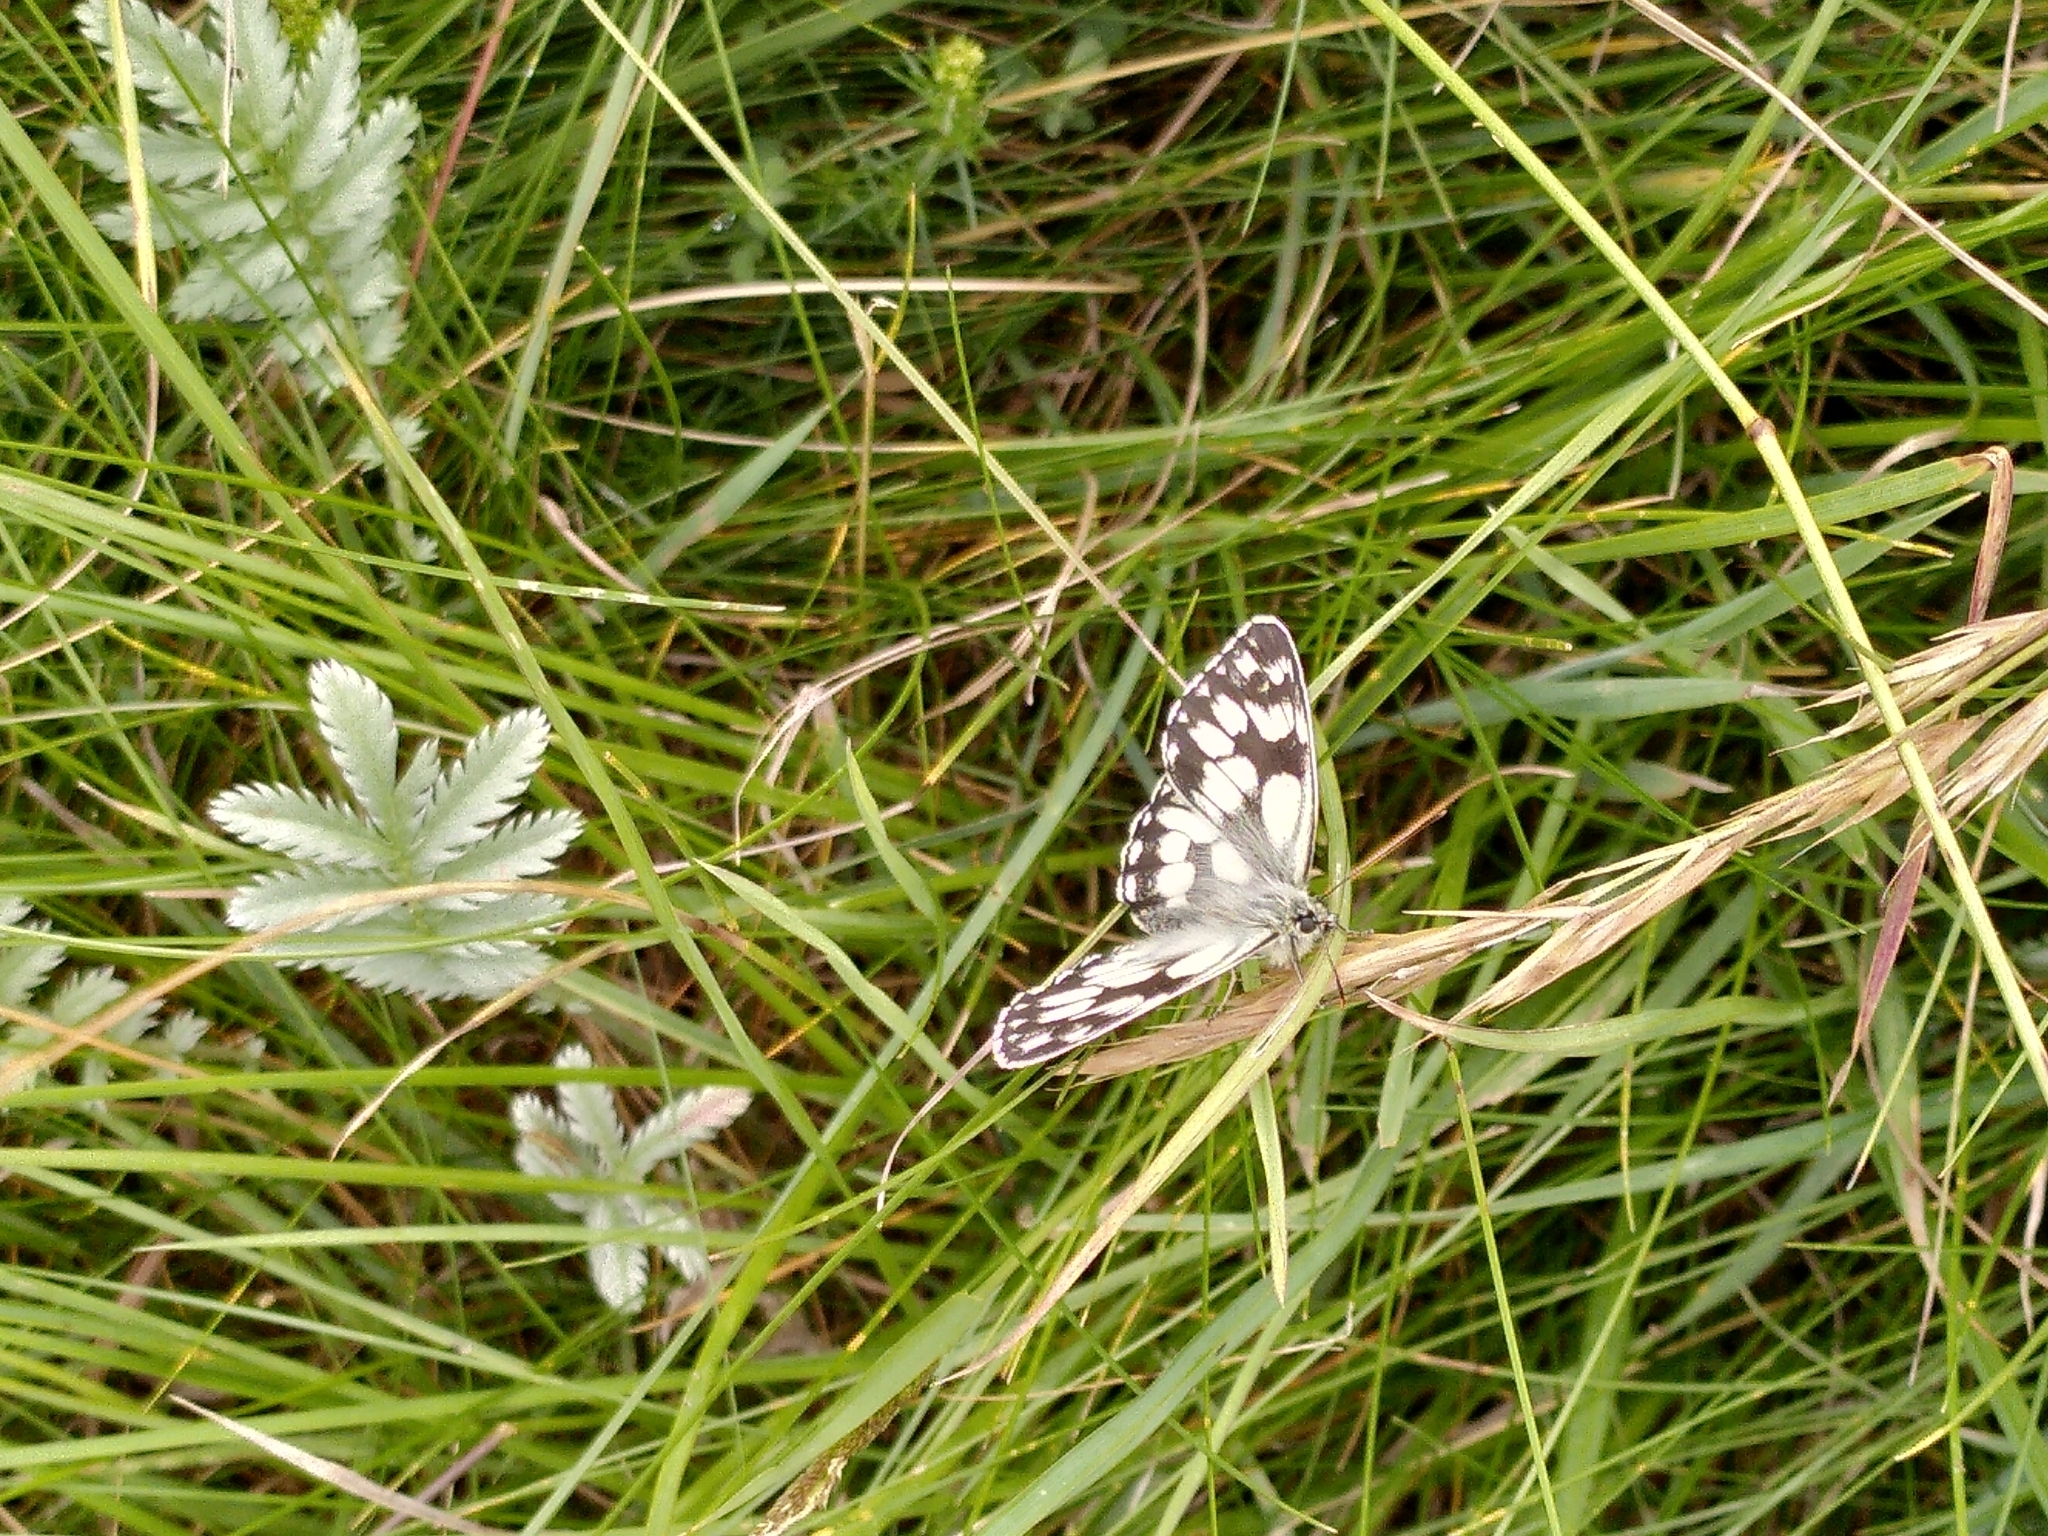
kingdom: Animalia
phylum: Arthropoda
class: Insecta
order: Lepidoptera
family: Nymphalidae
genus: Melanargia
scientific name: Melanargia galathea
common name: Marbled white
